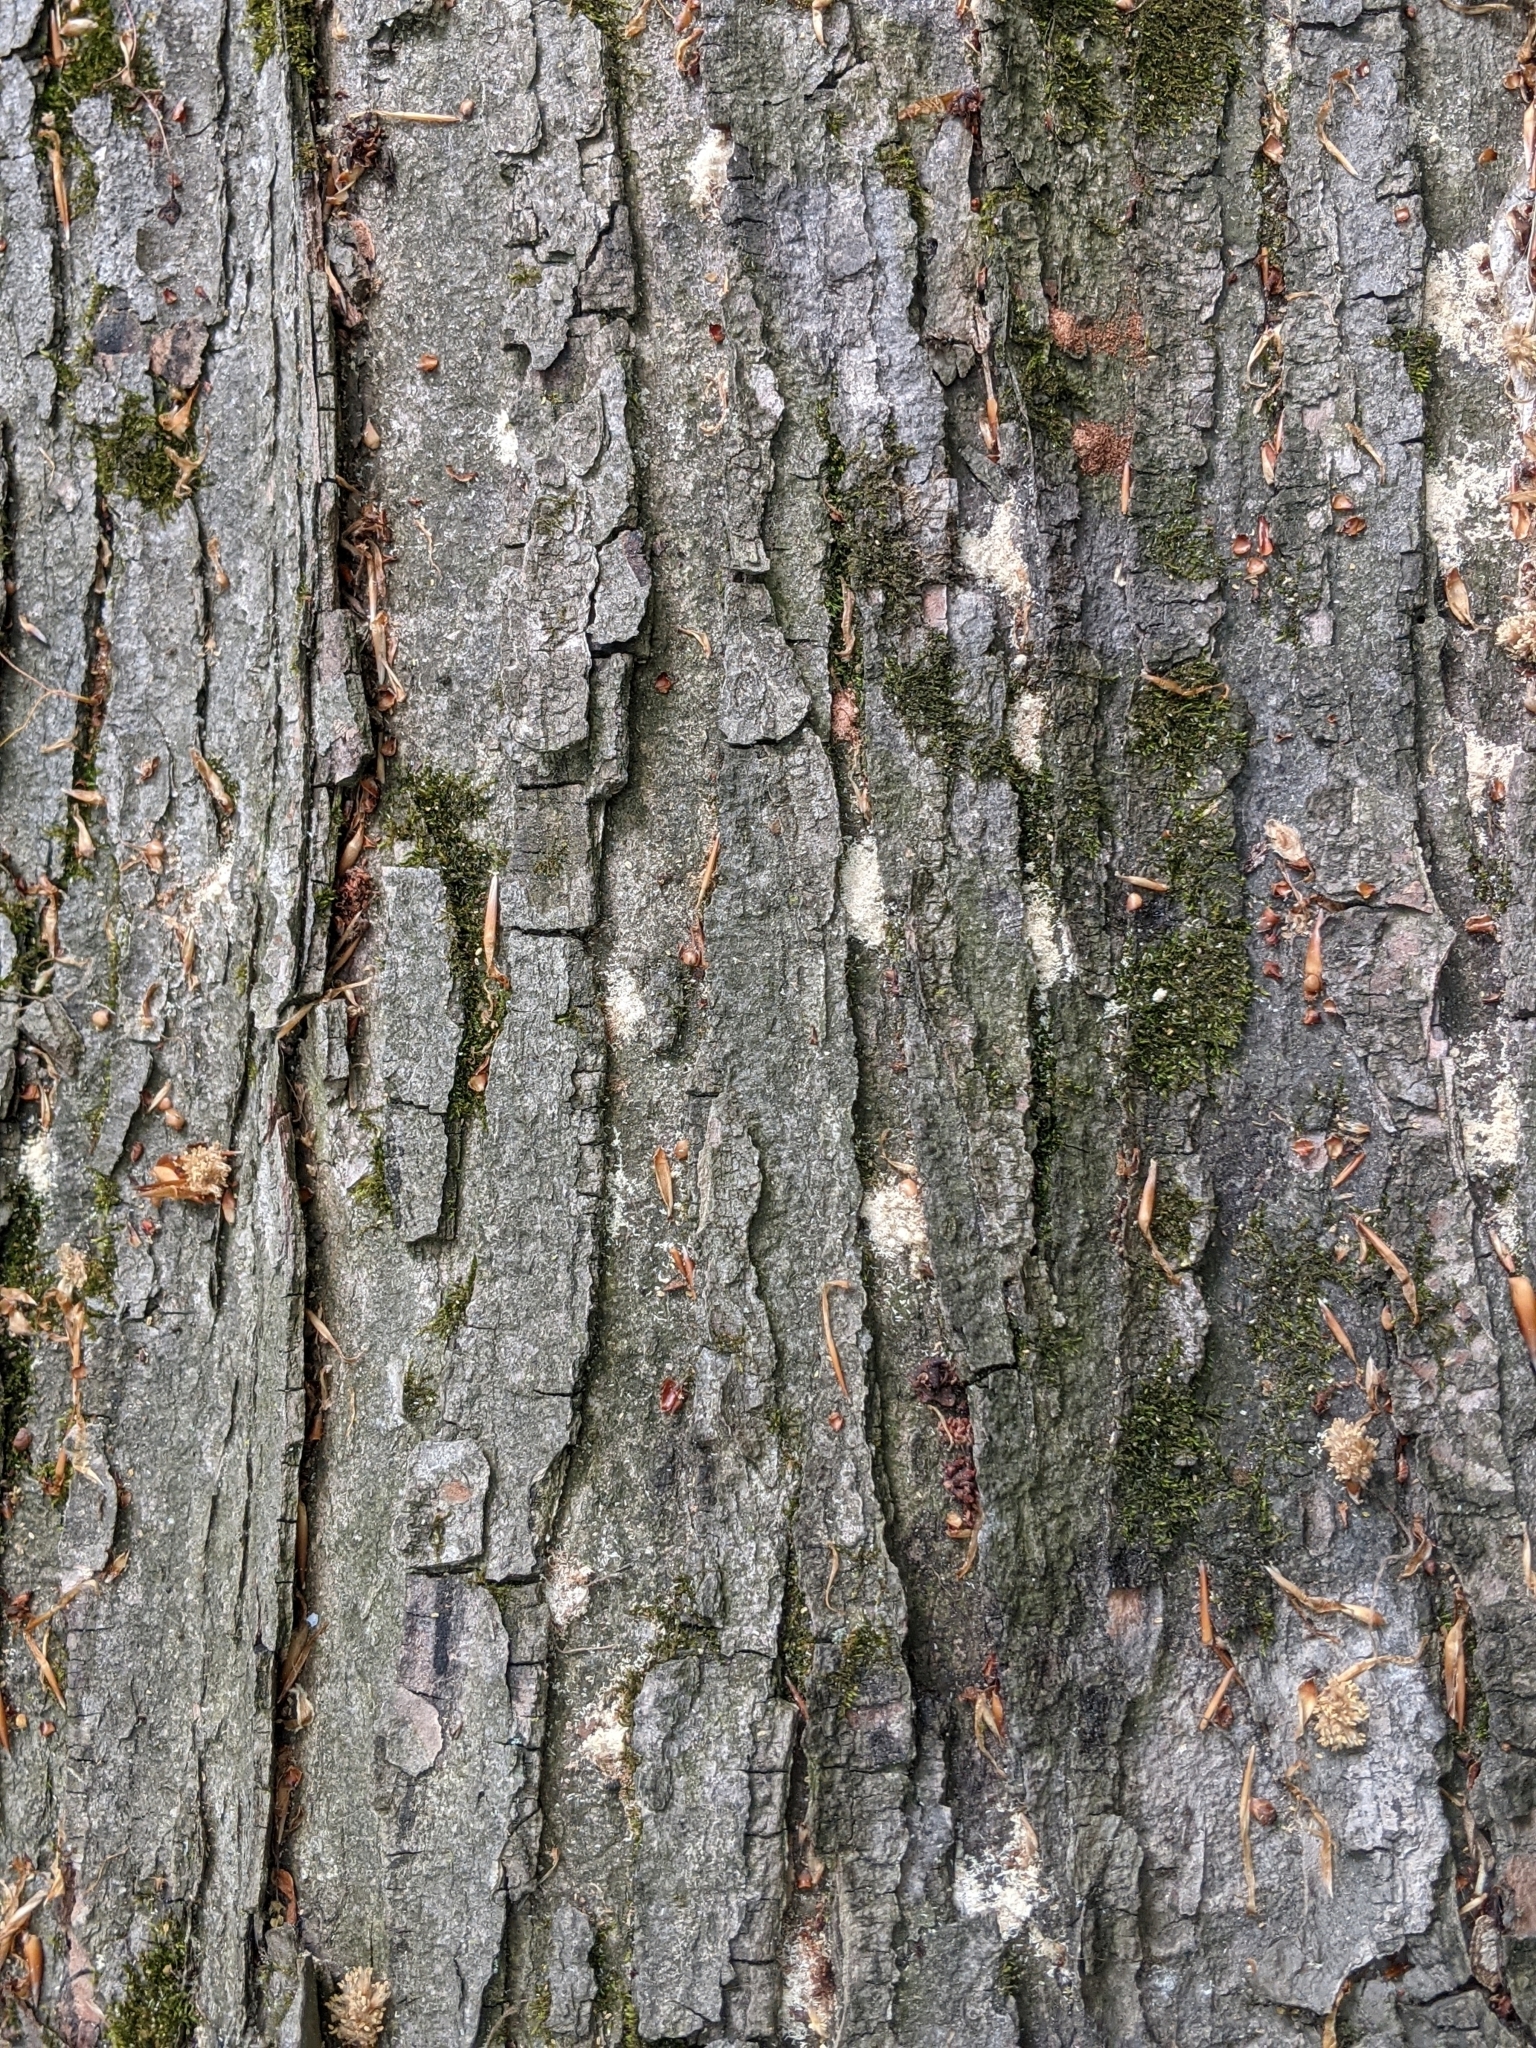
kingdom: Plantae
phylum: Tracheophyta
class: Magnoliopsida
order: Sapindales
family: Sapindaceae
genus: Acer
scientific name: Acer rubrum
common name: Red maple
